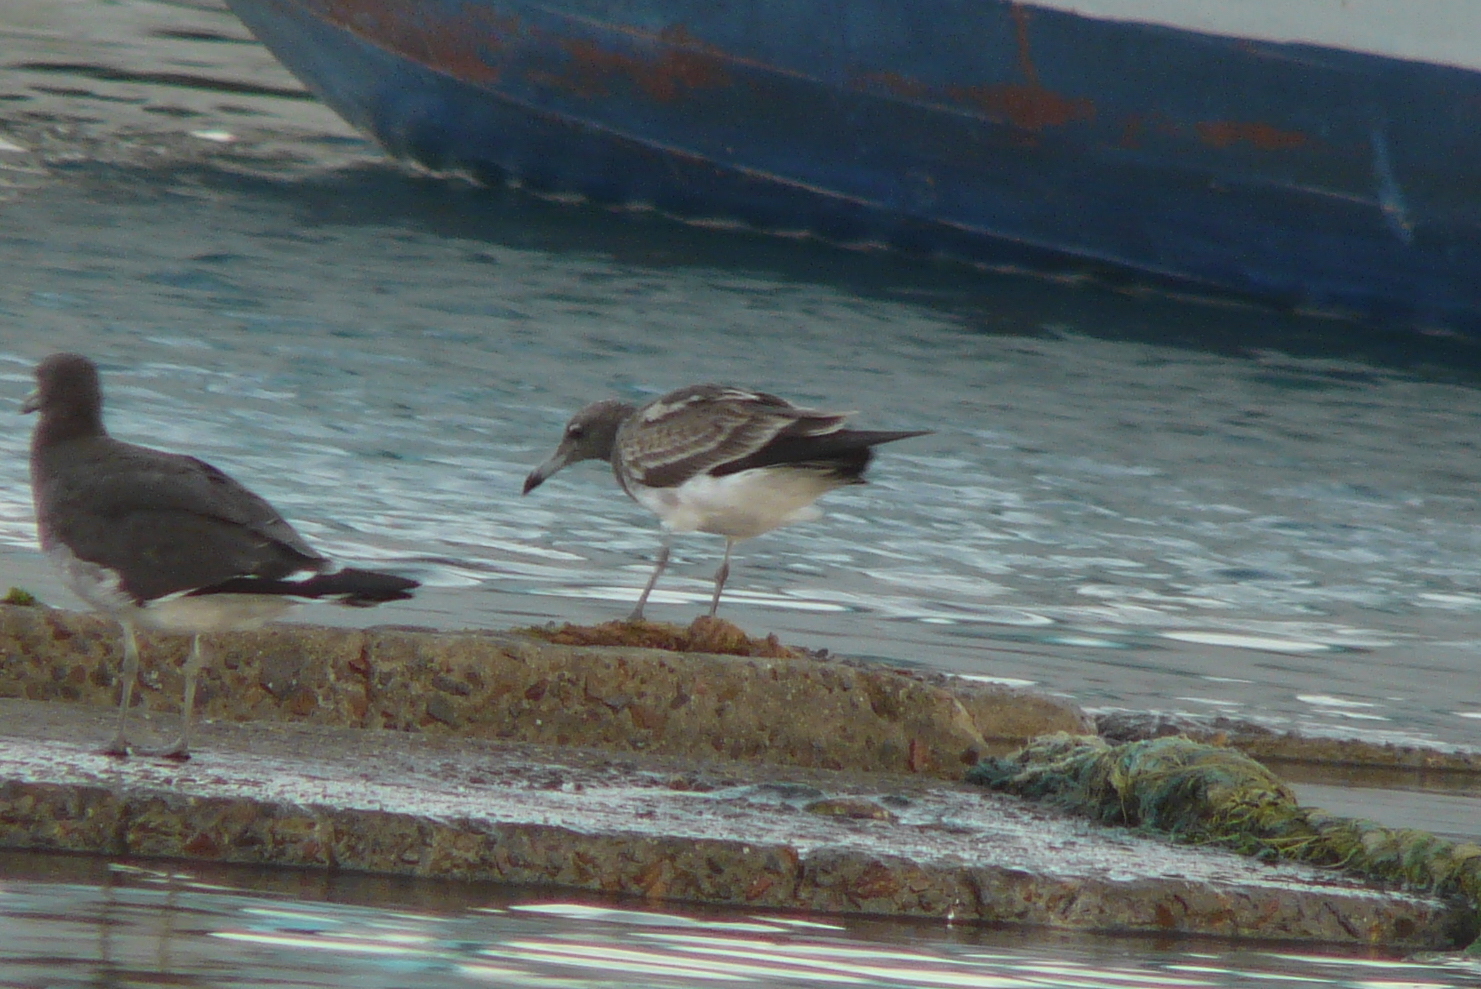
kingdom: Animalia
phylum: Chordata
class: Aves
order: Charadriiformes
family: Laridae
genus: Ichthyaetus
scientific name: Ichthyaetus hemprichii
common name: Sooty gull
